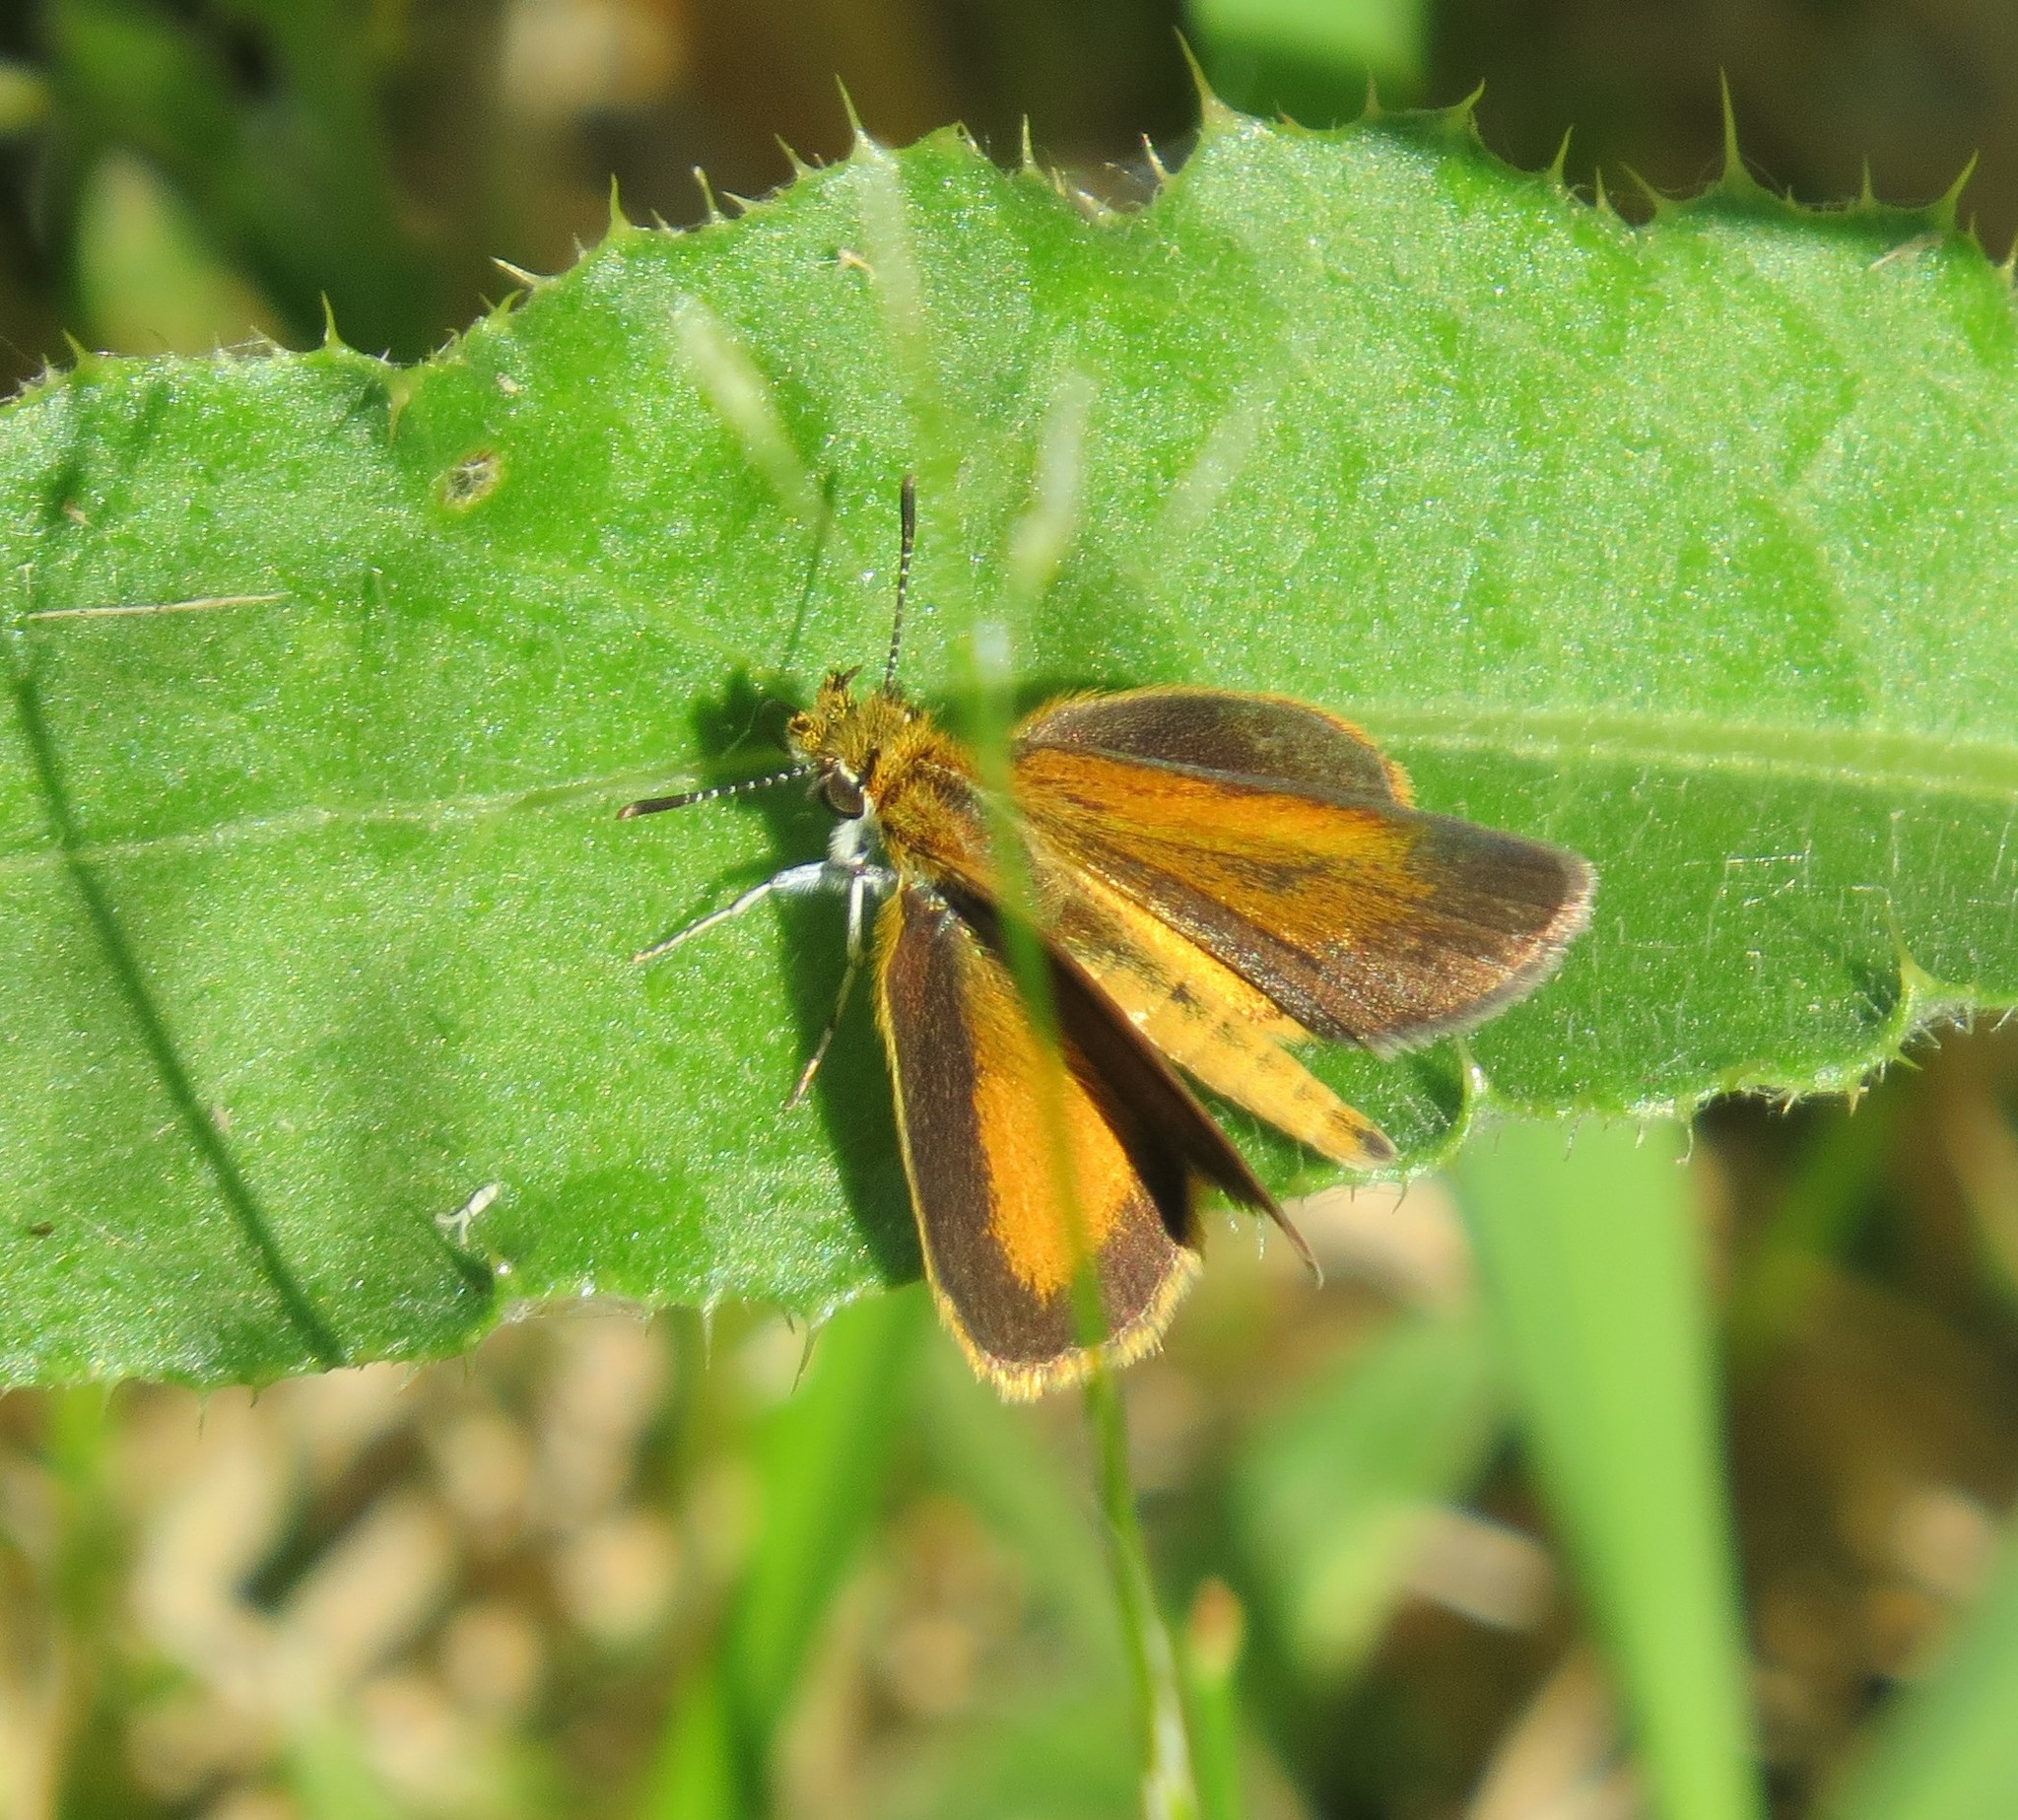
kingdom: Animalia
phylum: Arthropoda
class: Insecta
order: Lepidoptera
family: Hesperiidae
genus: Ancyloxypha
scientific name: Ancyloxypha numitor
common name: Least skipper
